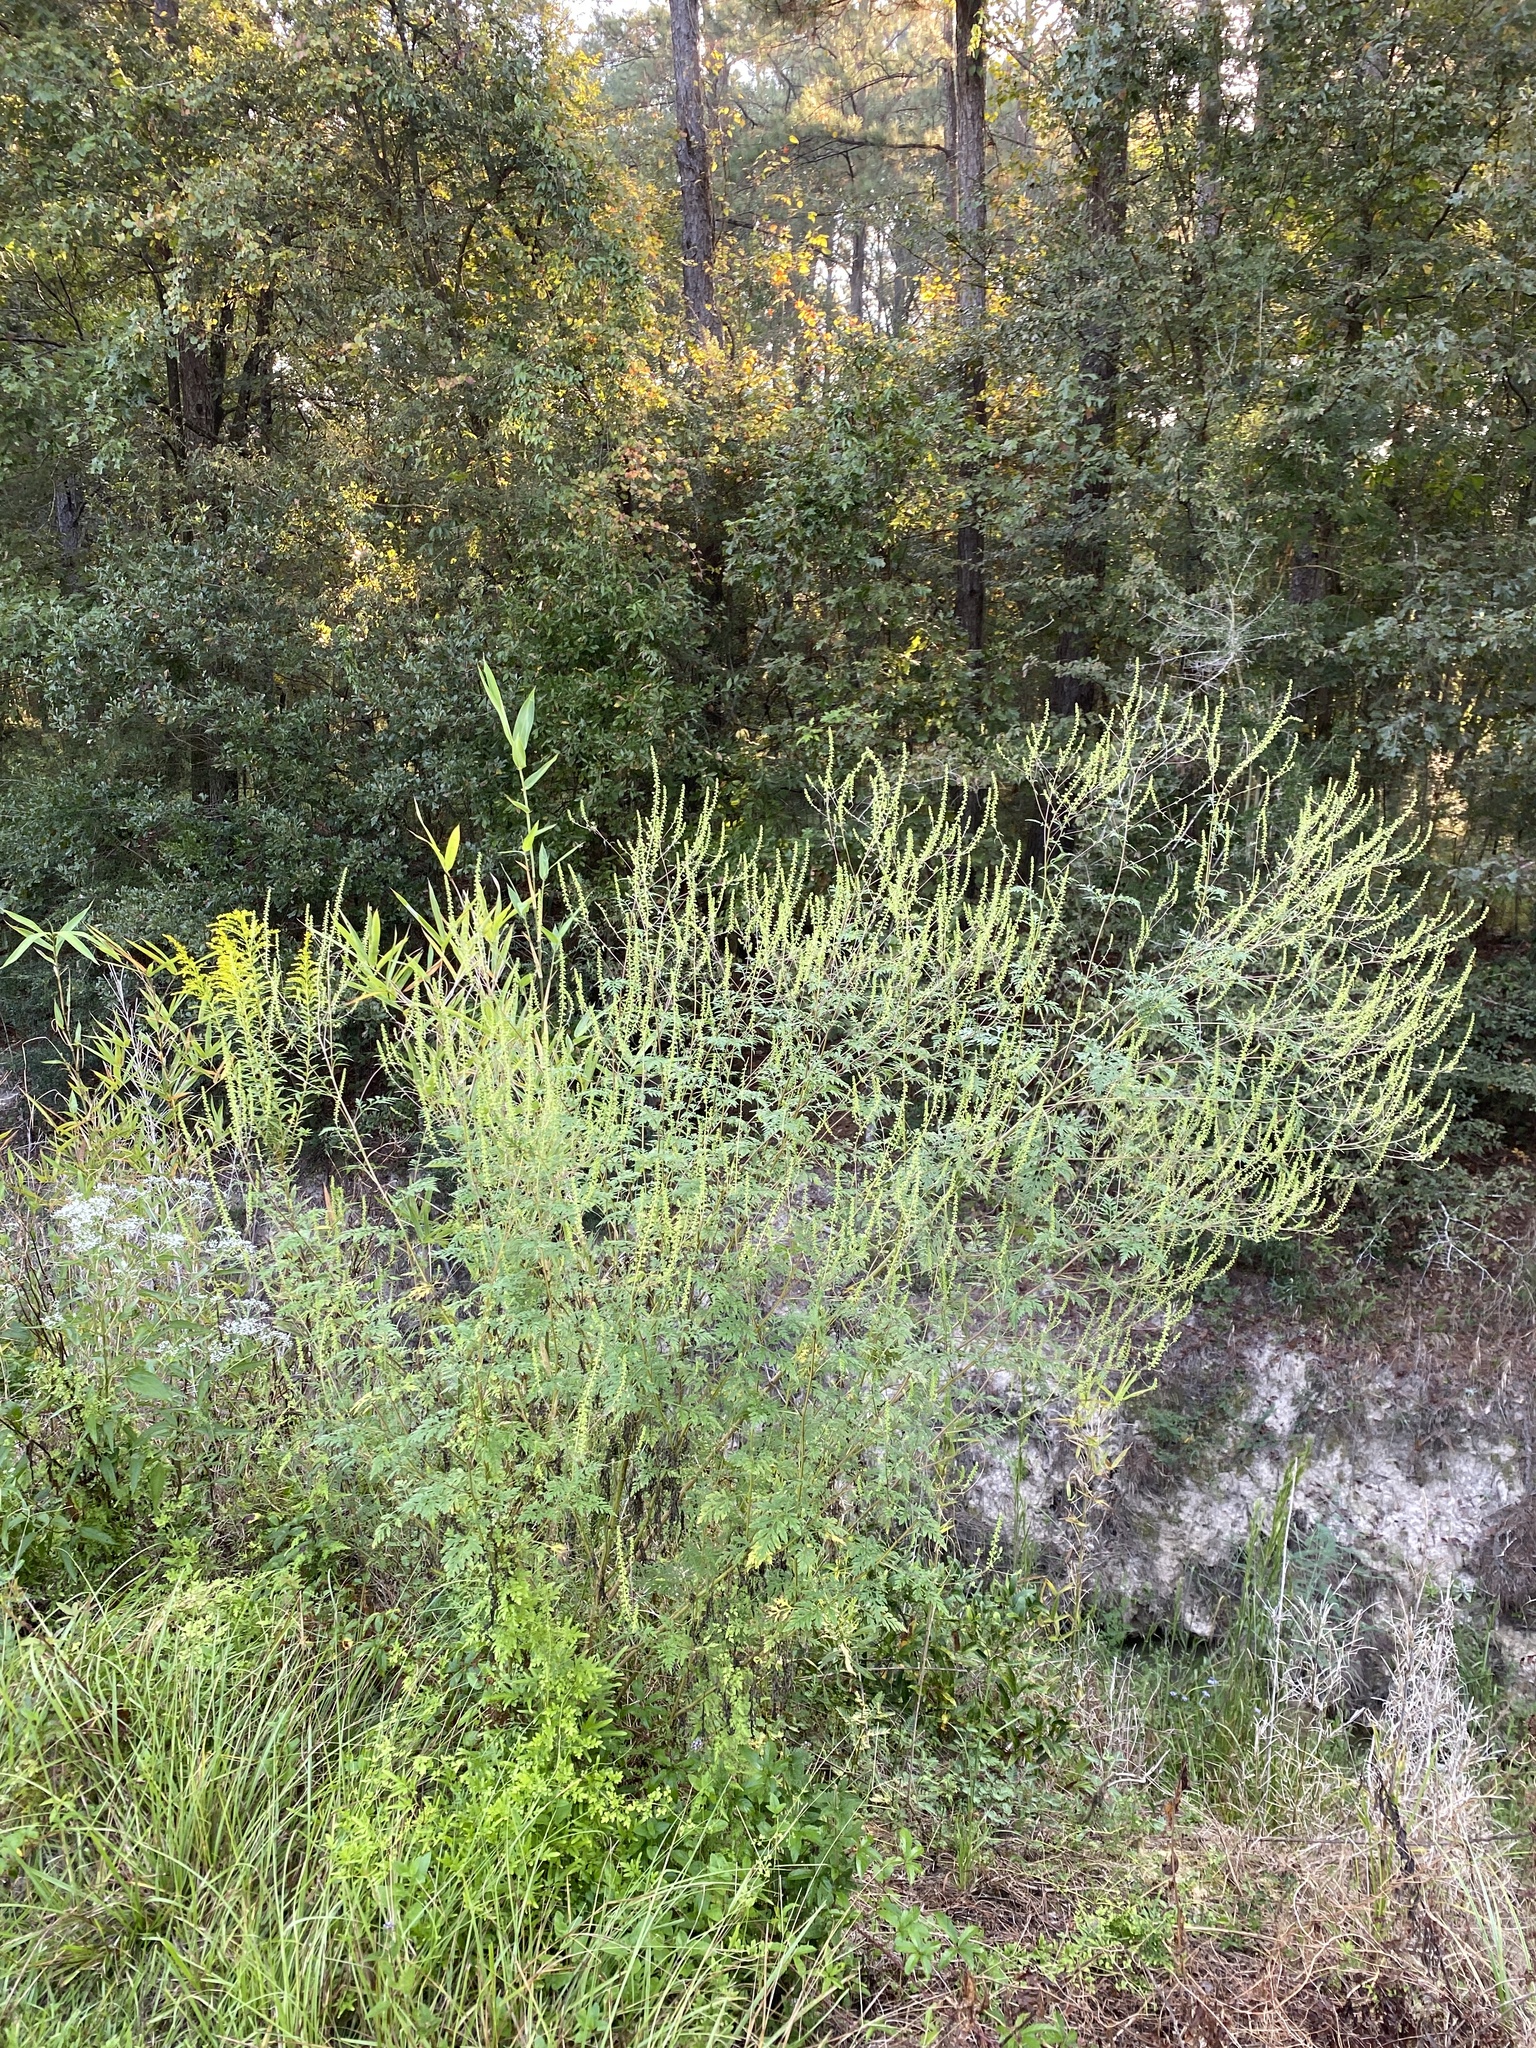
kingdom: Plantae
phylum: Tracheophyta
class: Magnoliopsida
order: Asterales
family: Asteraceae
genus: Ambrosia
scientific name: Ambrosia artemisiifolia
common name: Annual ragweed
